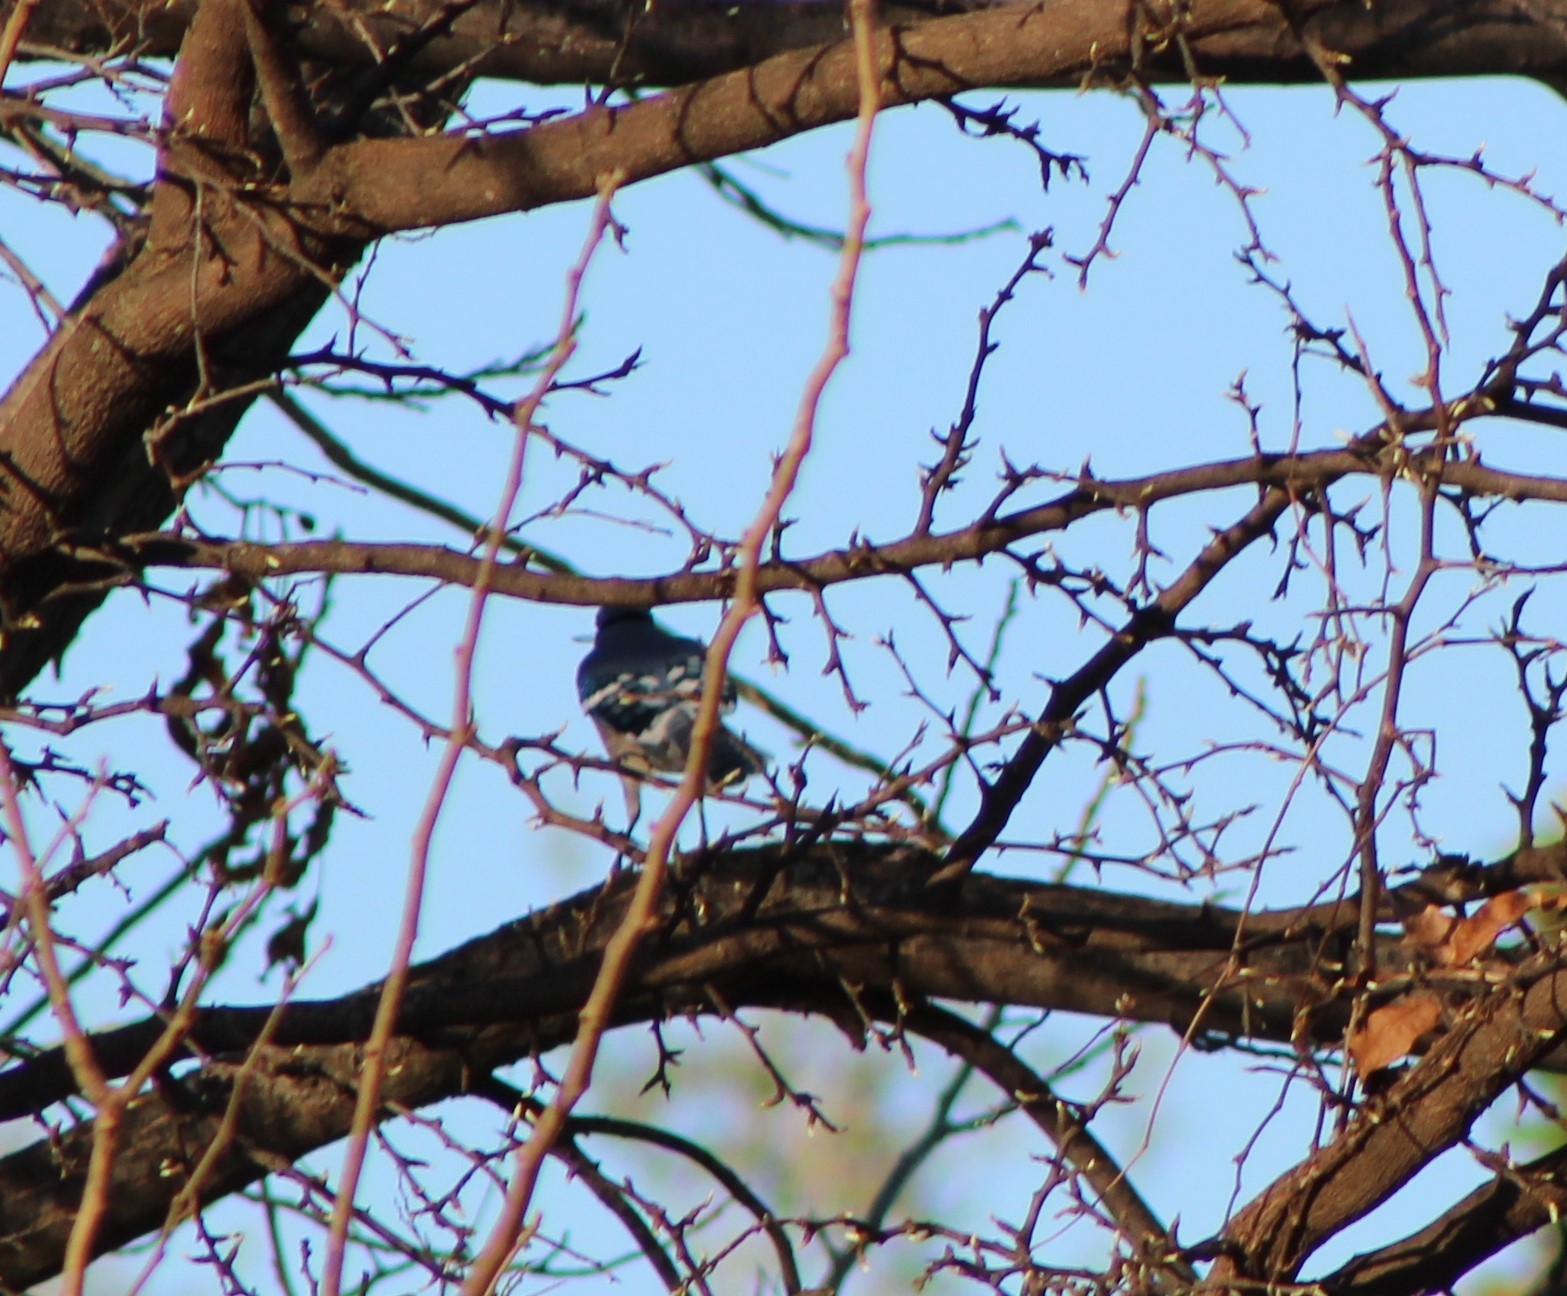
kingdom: Animalia
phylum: Chordata
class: Aves
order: Passeriformes
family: Corvidae
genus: Cyanocitta
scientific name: Cyanocitta cristata
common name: Blue jay
